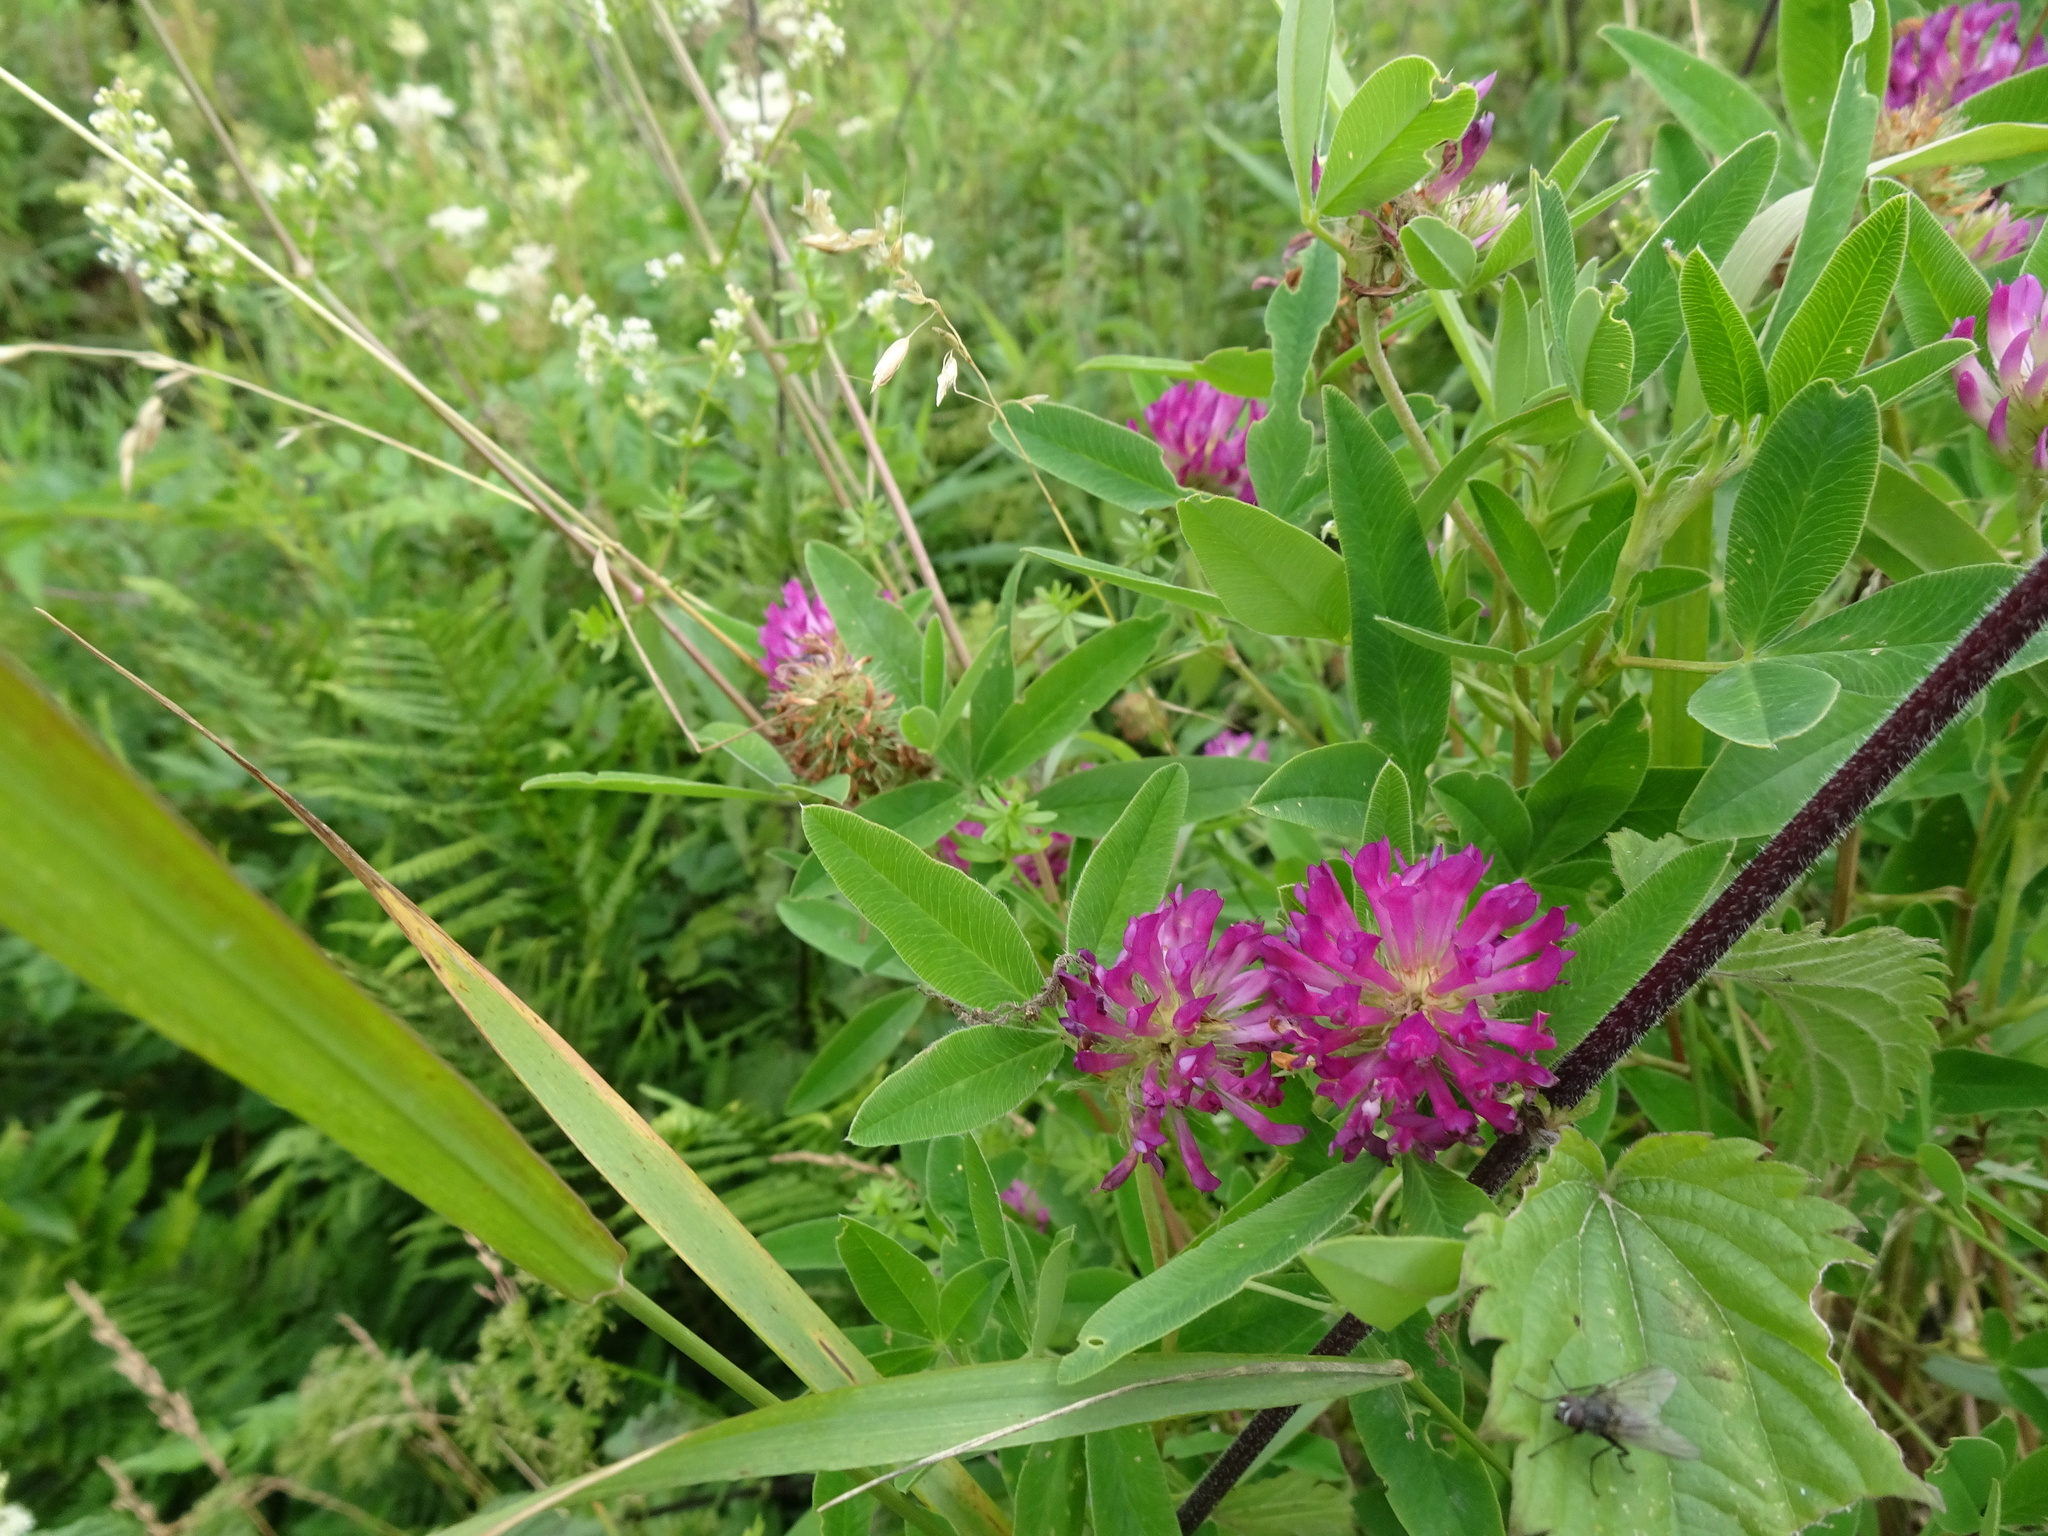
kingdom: Plantae
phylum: Tracheophyta
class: Magnoliopsida
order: Fabales
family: Fabaceae
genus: Trifolium
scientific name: Trifolium medium
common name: Zigzag clover
